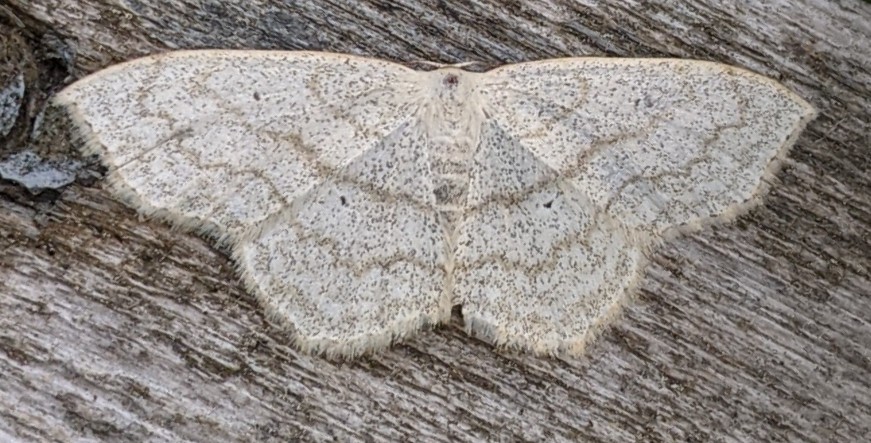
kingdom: Animalia
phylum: Arthropoda
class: Insecta
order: Lepidoptera
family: Geometridae
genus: Scopula
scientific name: Scopula limboundata
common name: Large lace border
